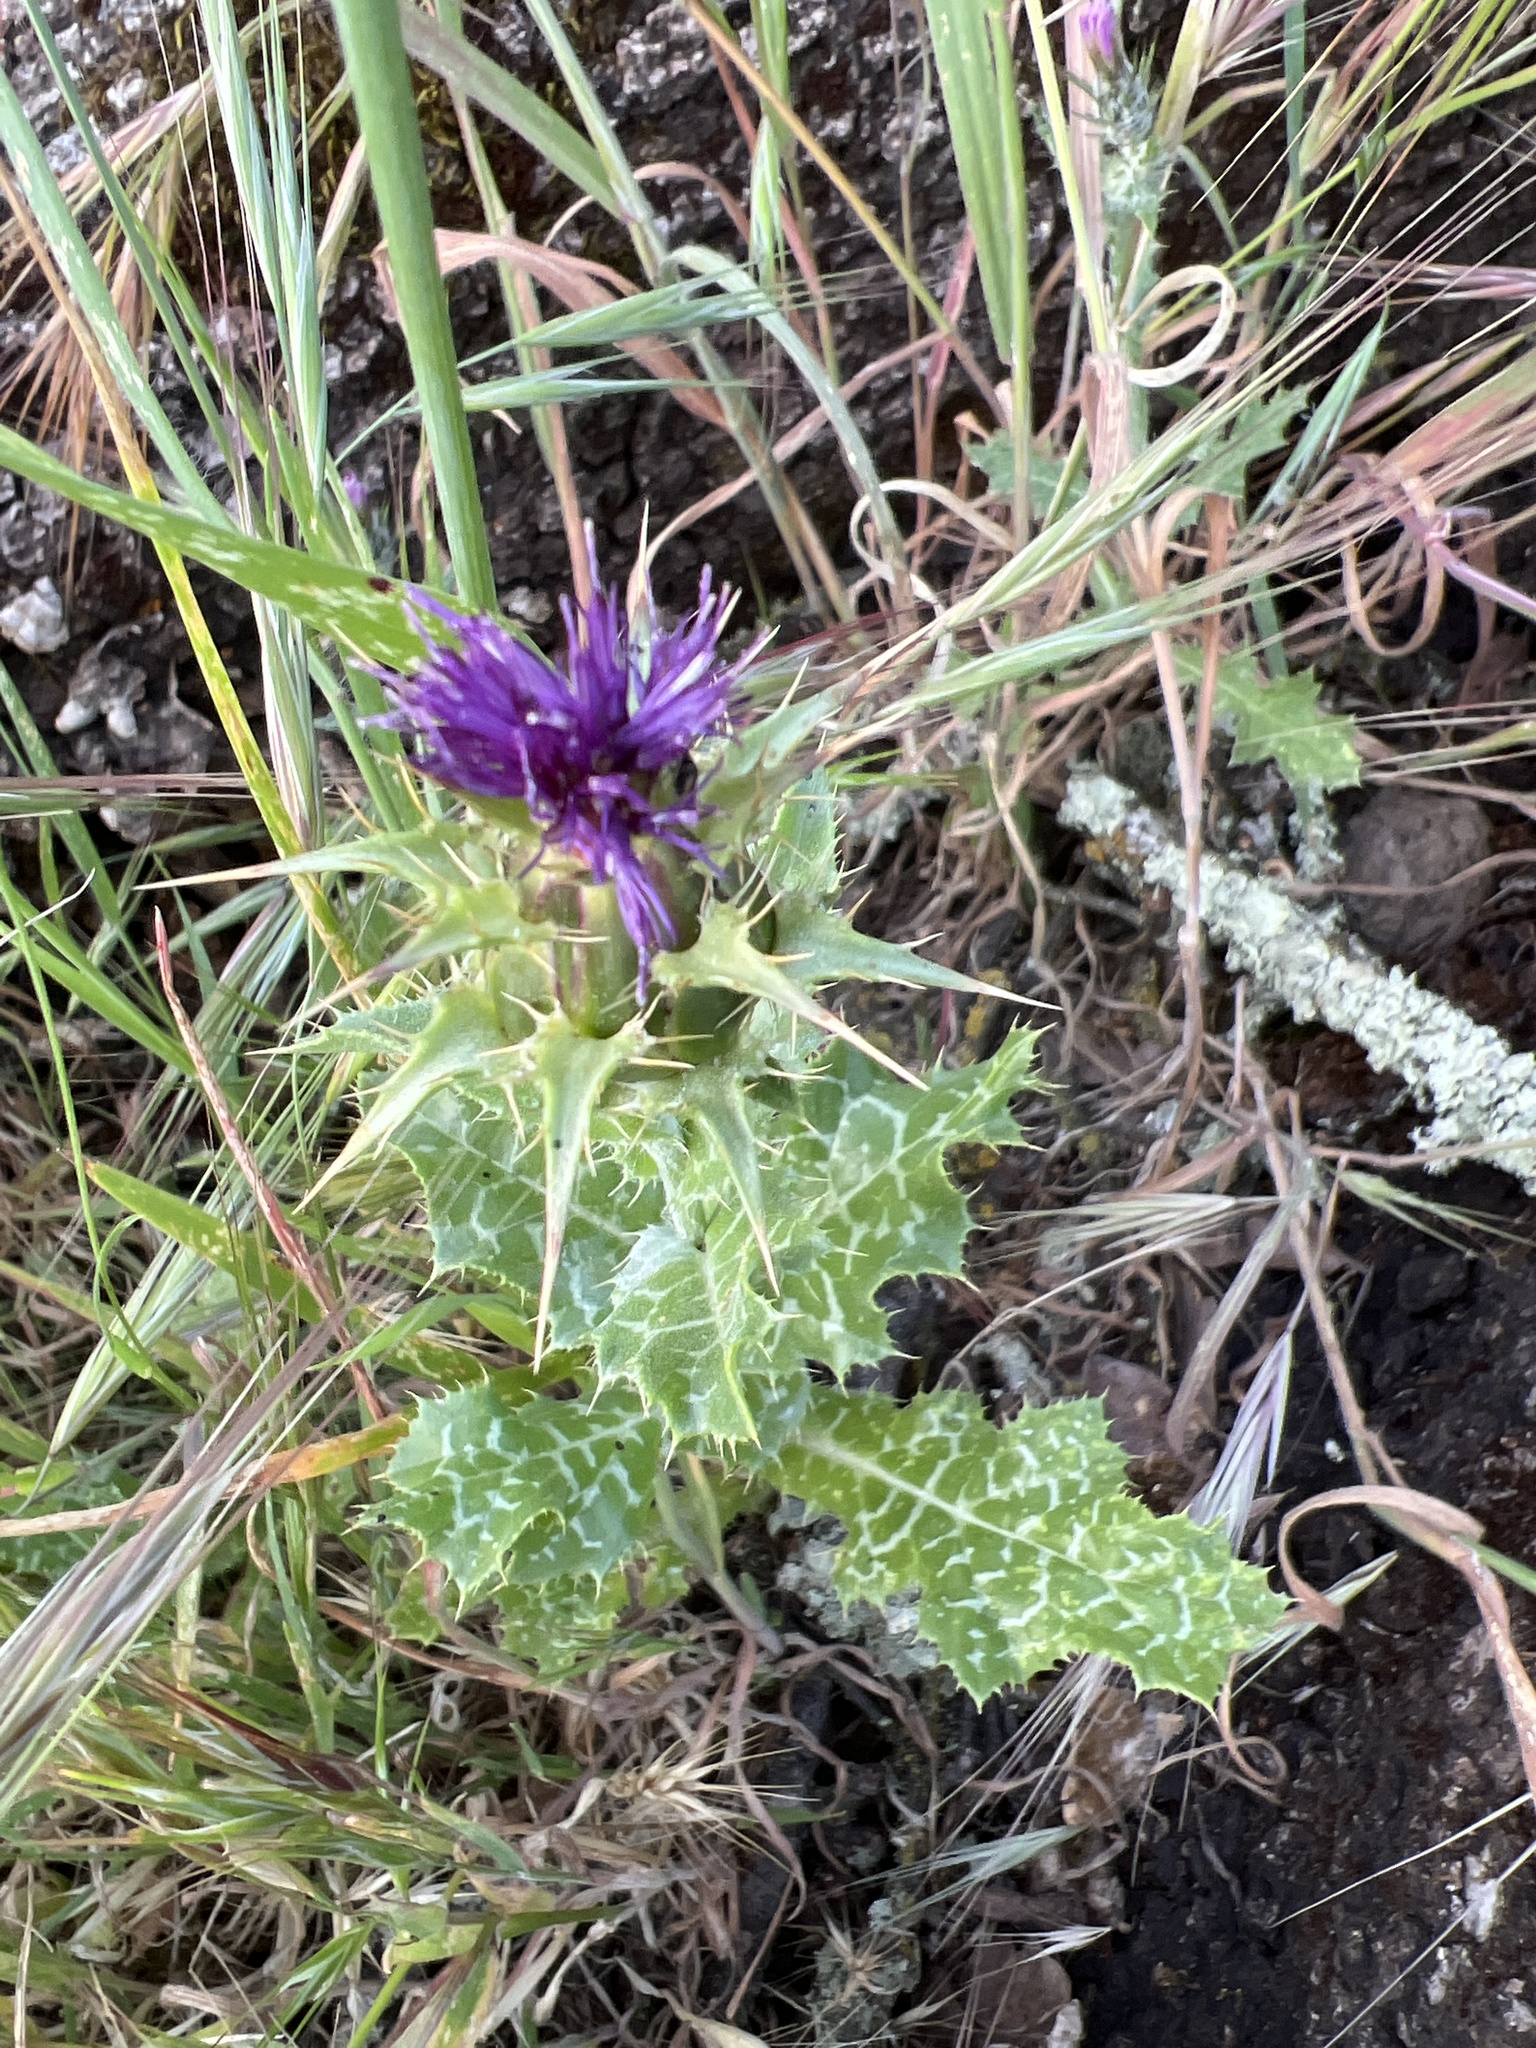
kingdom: Plantae
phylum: Tracheophyta
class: Magnoliopsida
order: Asterales
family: Asteraceae
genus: Silybum
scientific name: Silybum marianum
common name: Milk thistle
